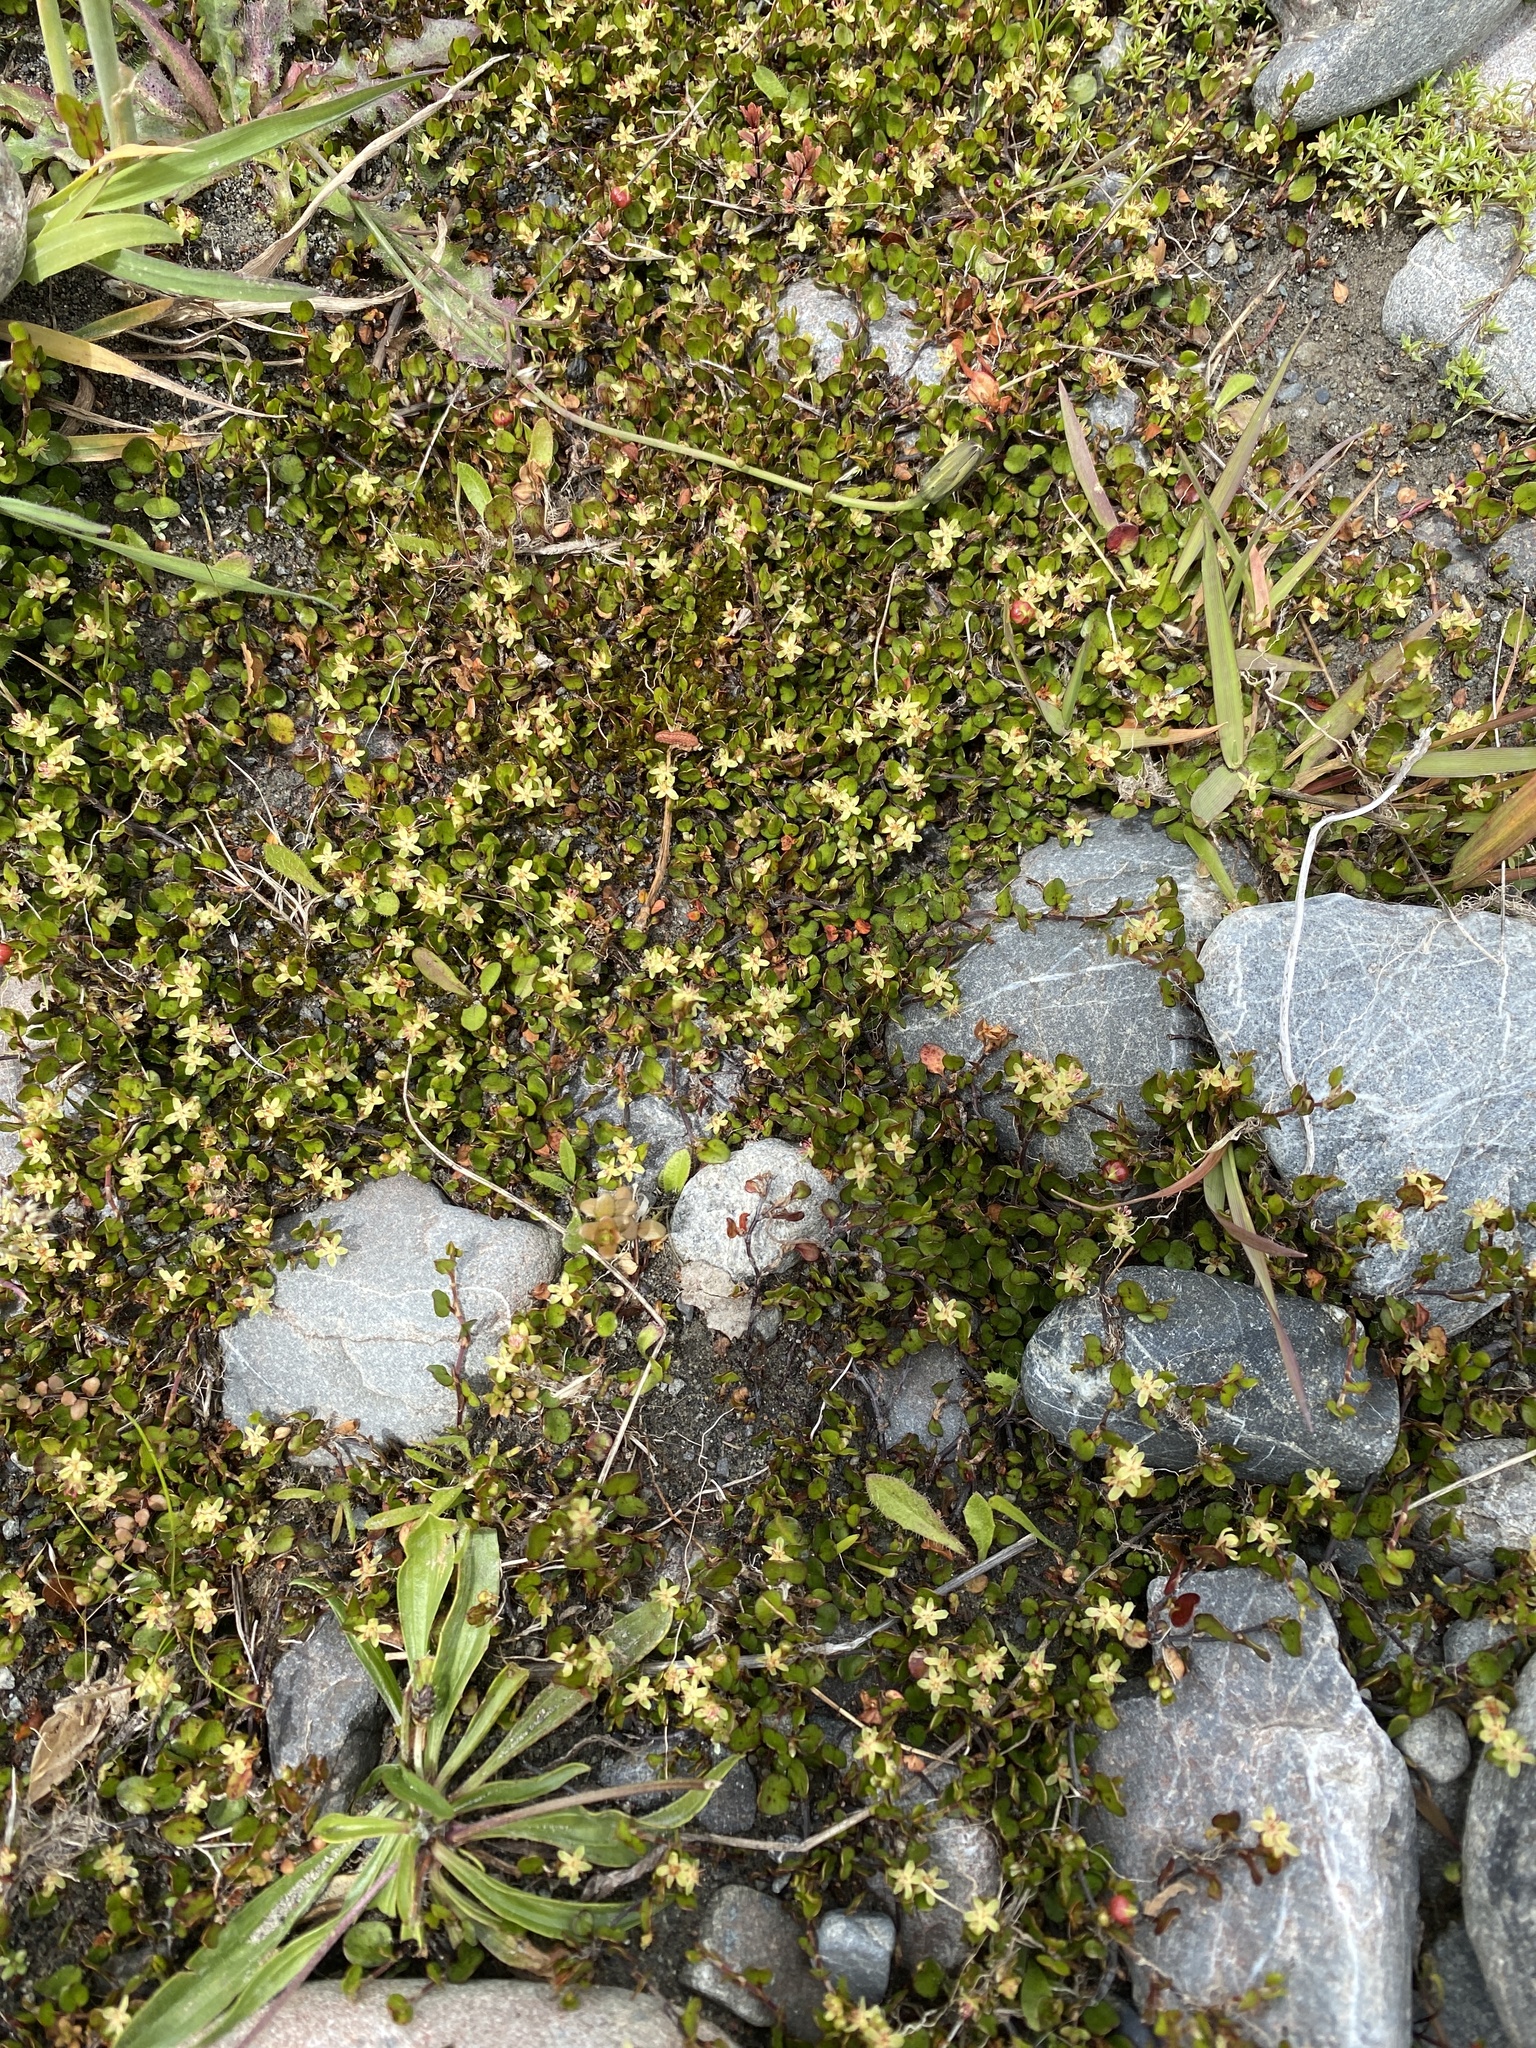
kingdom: Plantae
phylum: Tracheophyta
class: Magnoliopsida
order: Caryophyllales
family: Polygonaceae
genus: Muehlenbeckia
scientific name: Muehlenbeckia axillaris
